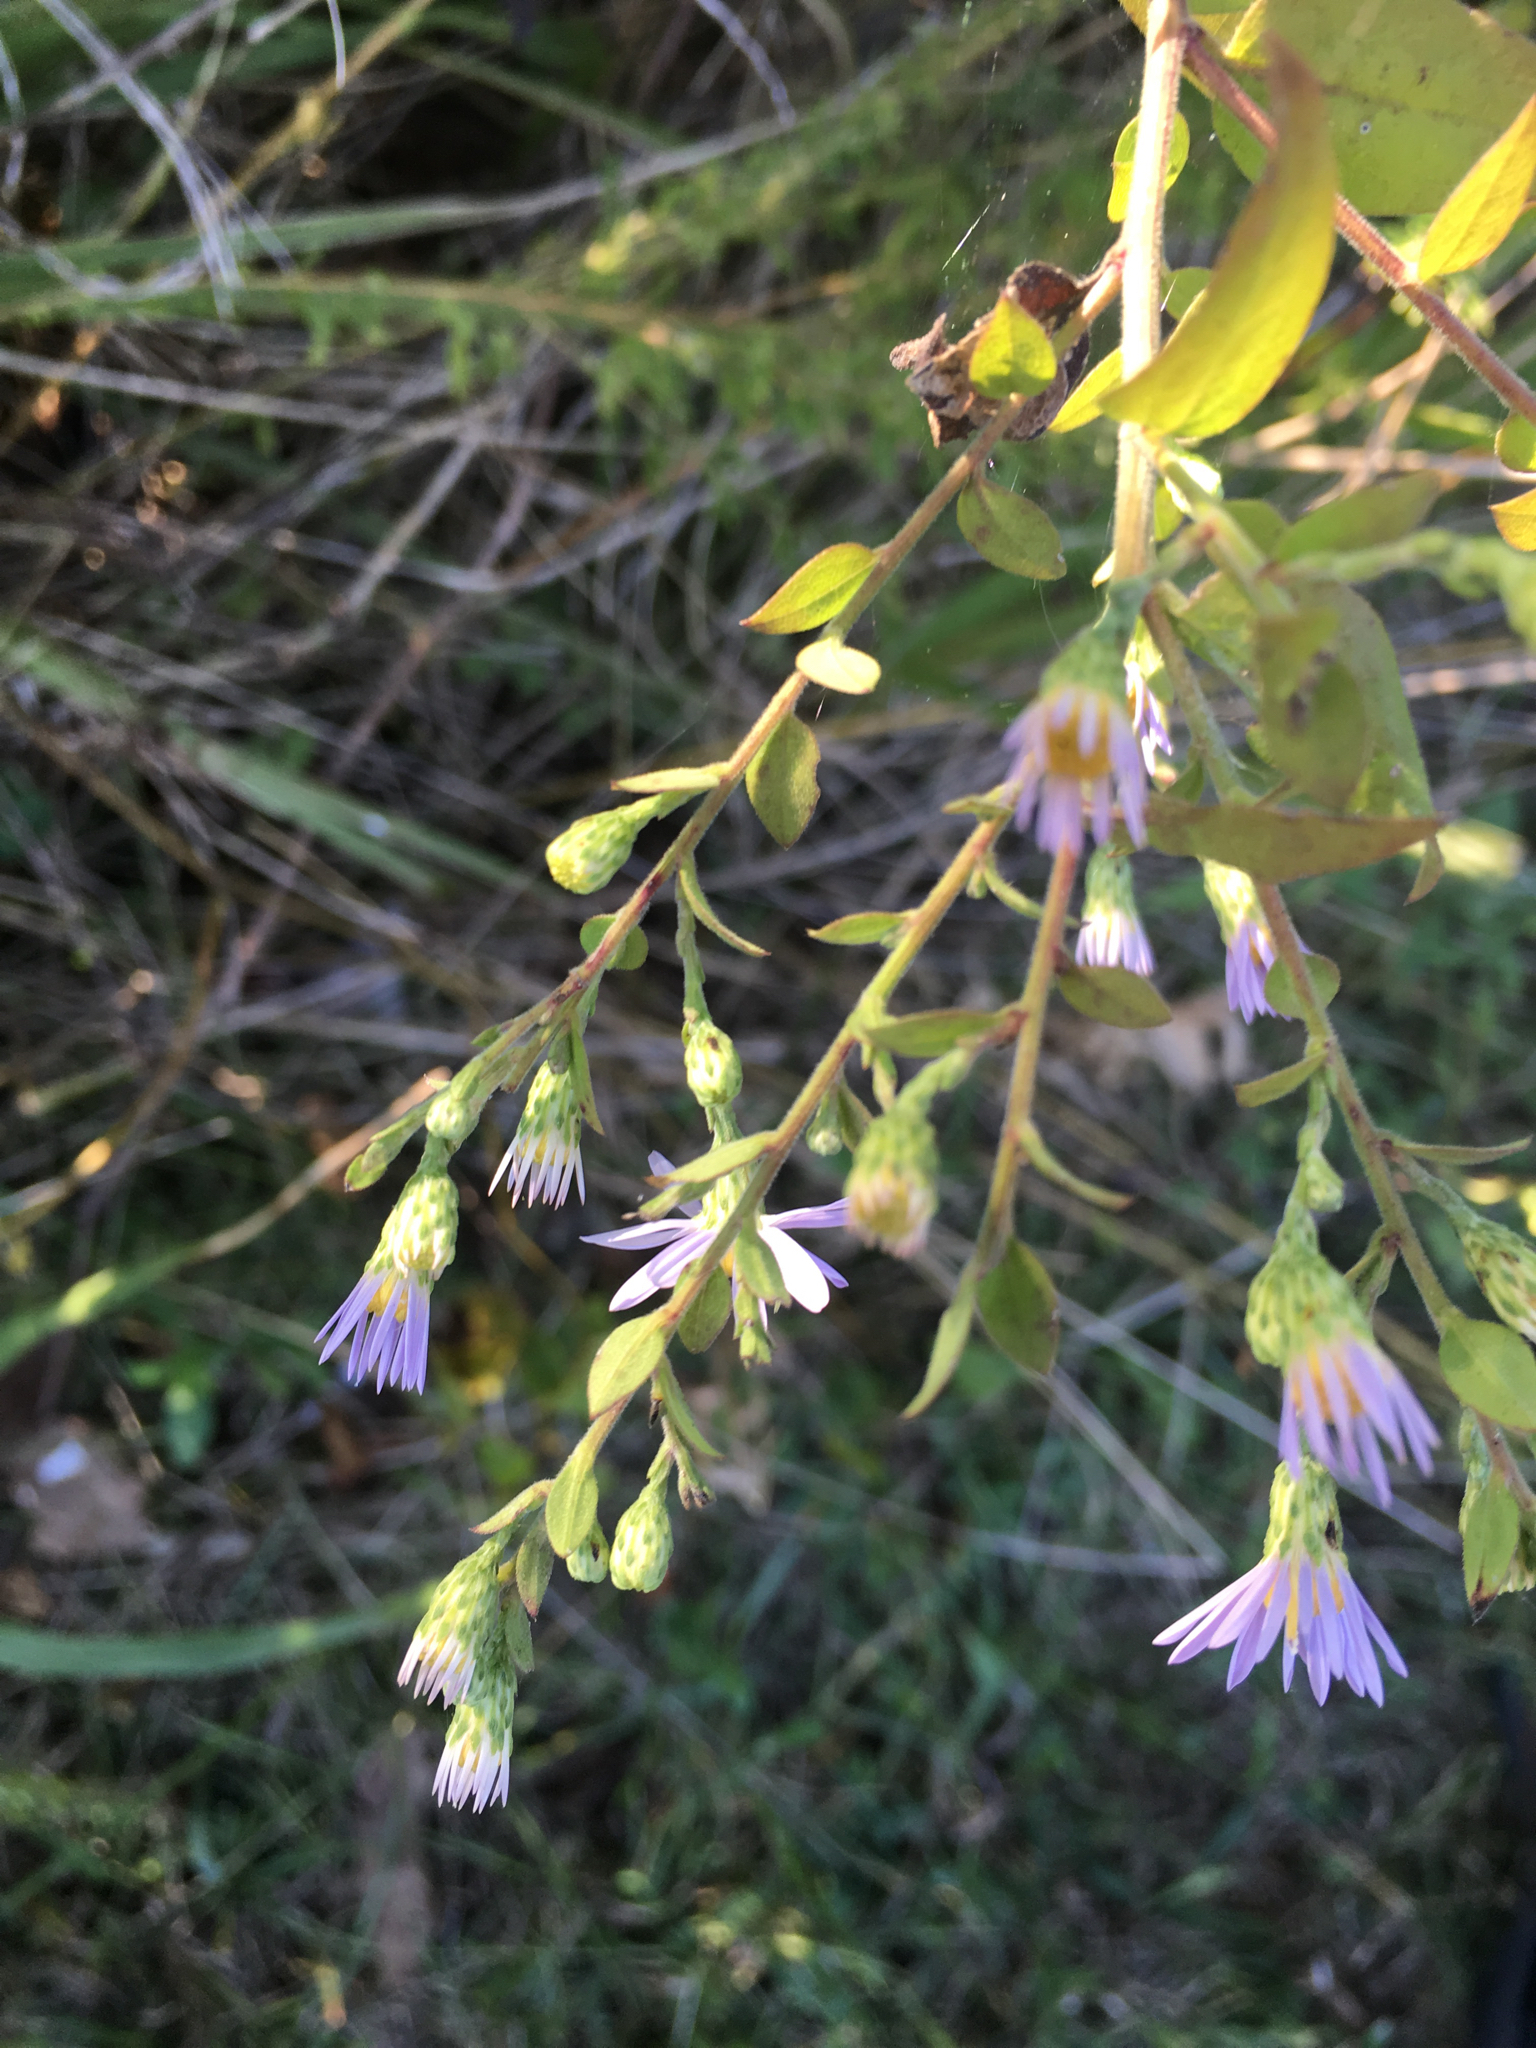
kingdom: Plantae
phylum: Tracheophyta
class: Magnoliopsida
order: Asterales
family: Asteraceae
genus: Symphyotrichum
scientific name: Symphyotrichum shortii
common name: Short's aster
